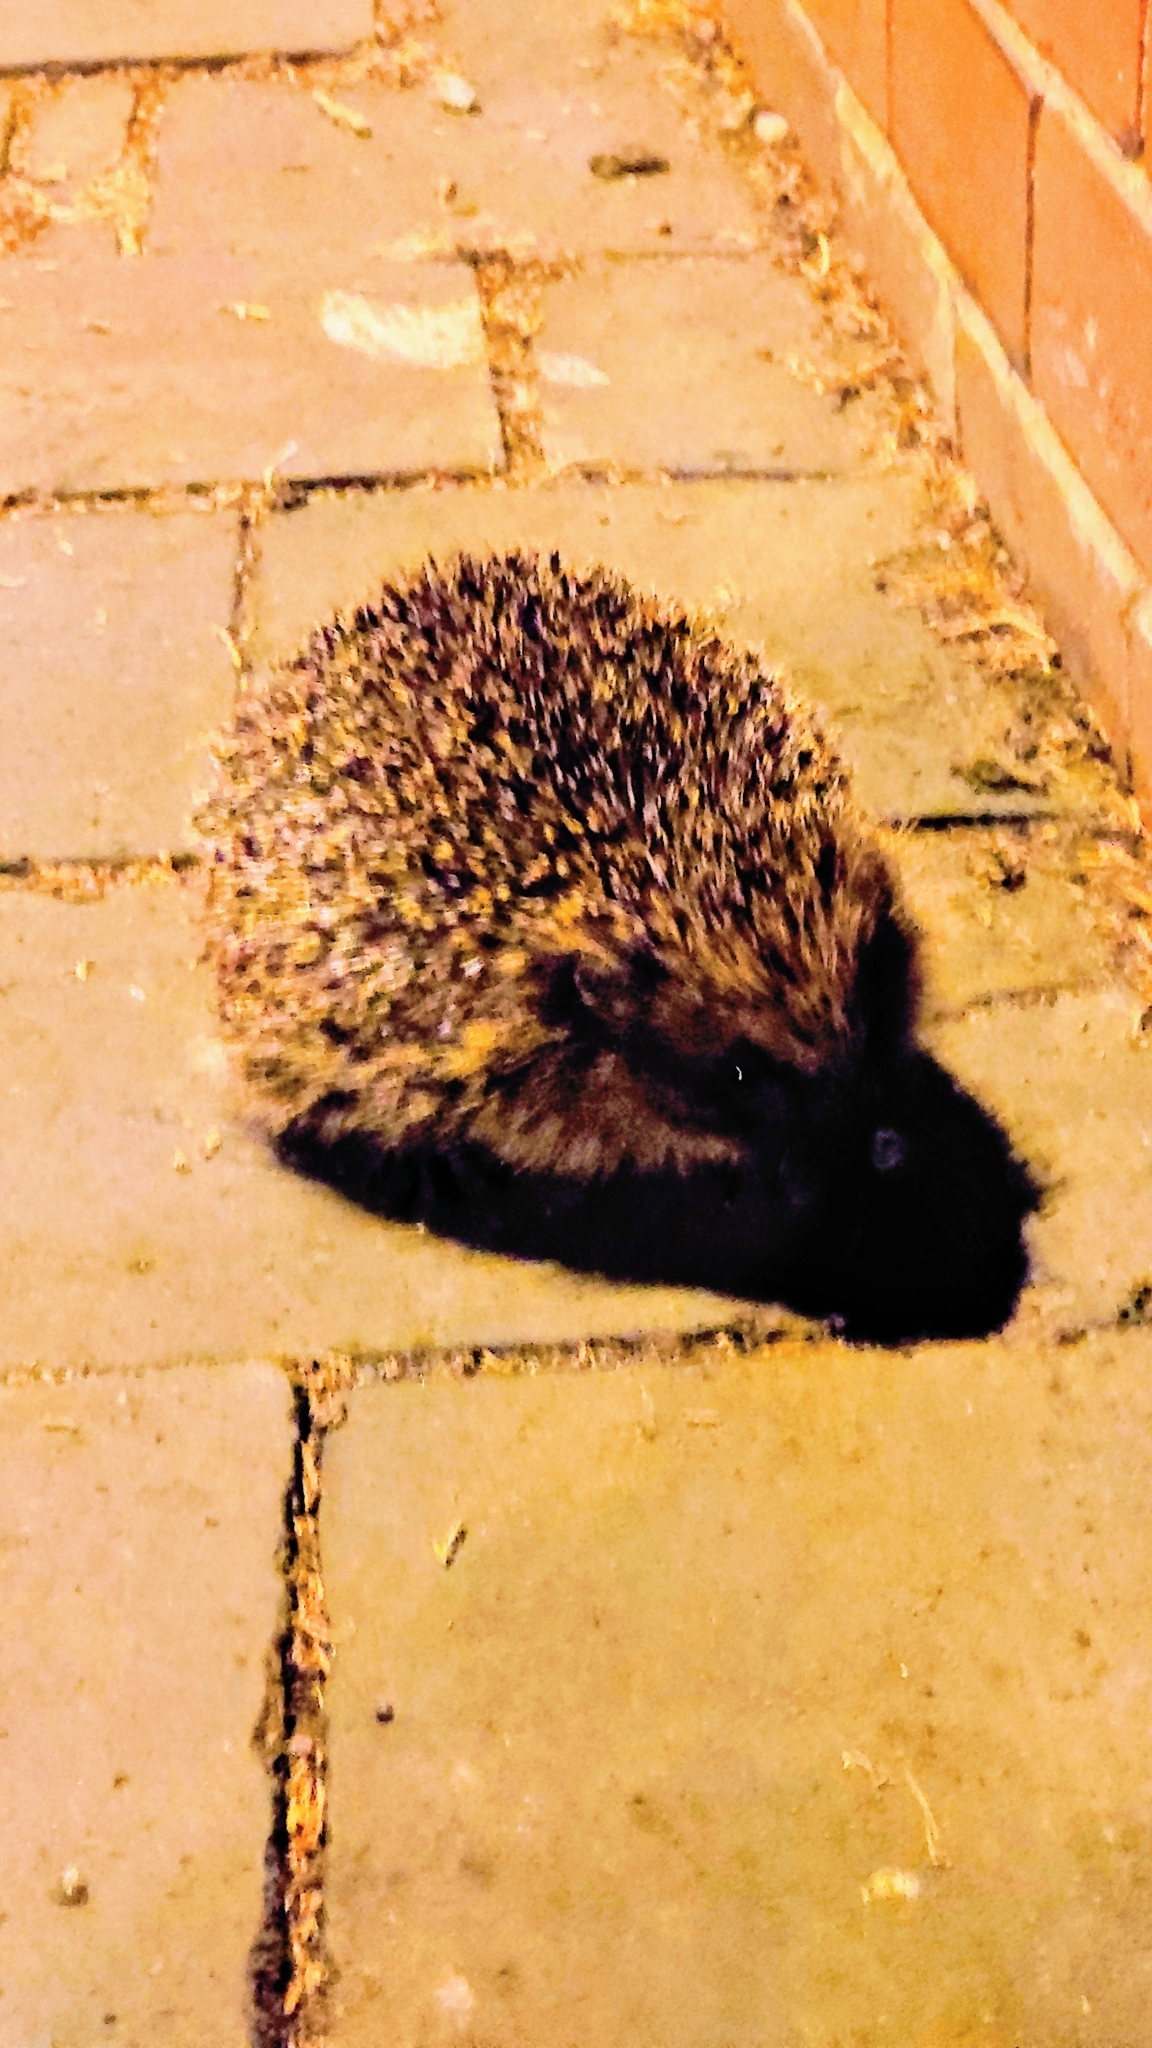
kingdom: Animalia
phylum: Chordata
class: Mammalia
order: Erinaceomorpha
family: Erinaceidae
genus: Erinaceus
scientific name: Erinaceus europaeus
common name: West european hedgehog
